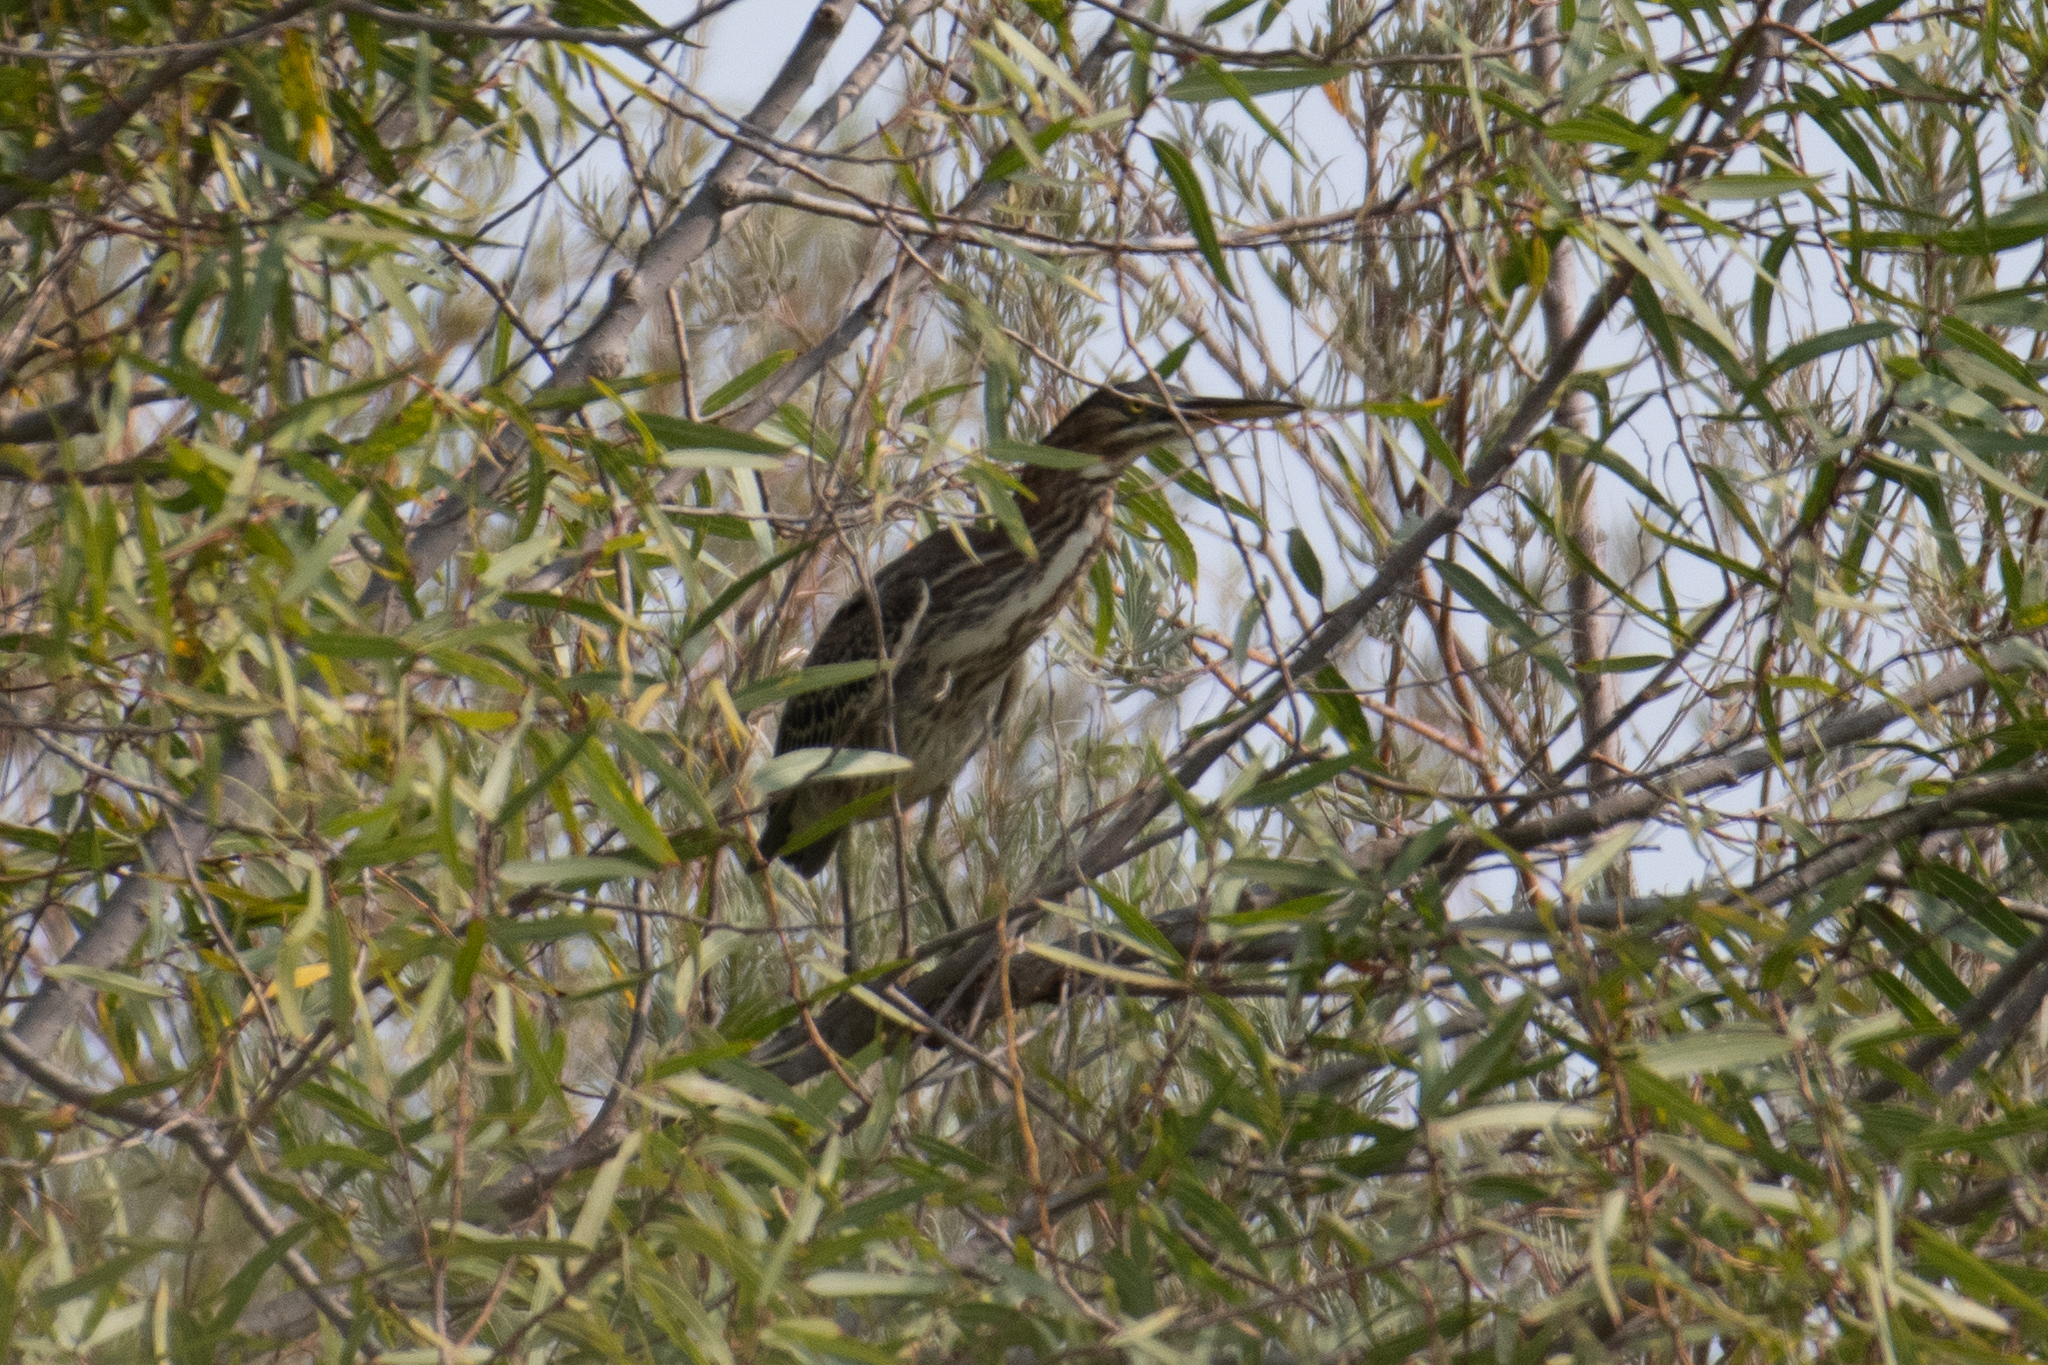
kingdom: Animalia
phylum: Chordata
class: Aves
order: Pelecaniformes
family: Ardeidae
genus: Butorides
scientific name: Butorides virescens
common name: Green heron
